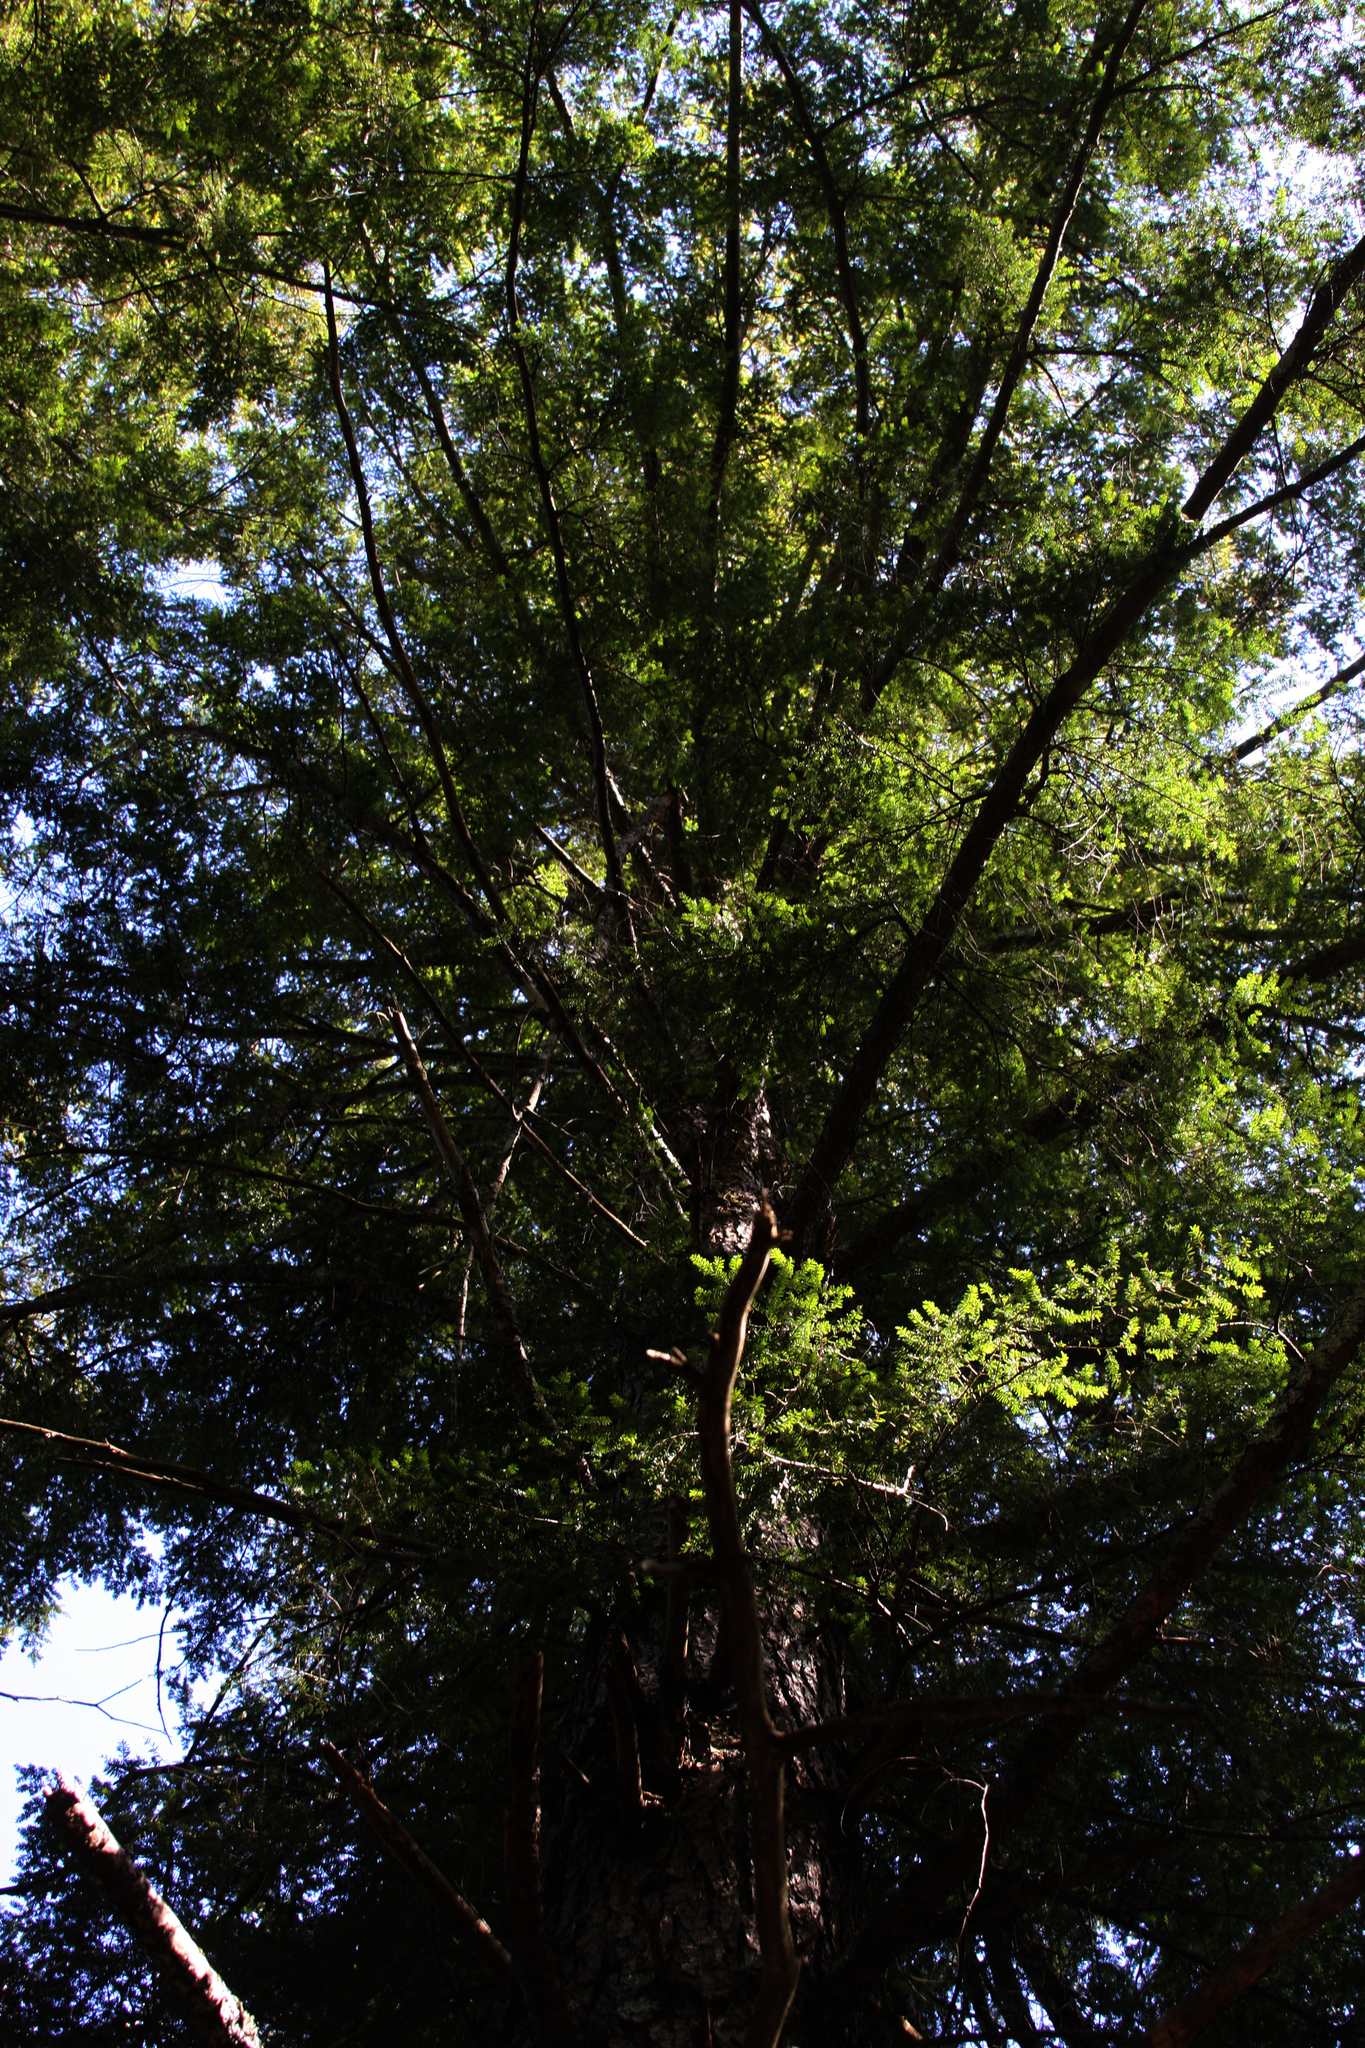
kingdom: Plantae
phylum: Tracheophyta
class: Pinopsida
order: Pinales
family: Pinaceae
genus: Tsuga
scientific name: Tsuga canadensis
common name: Eastern hemlock
